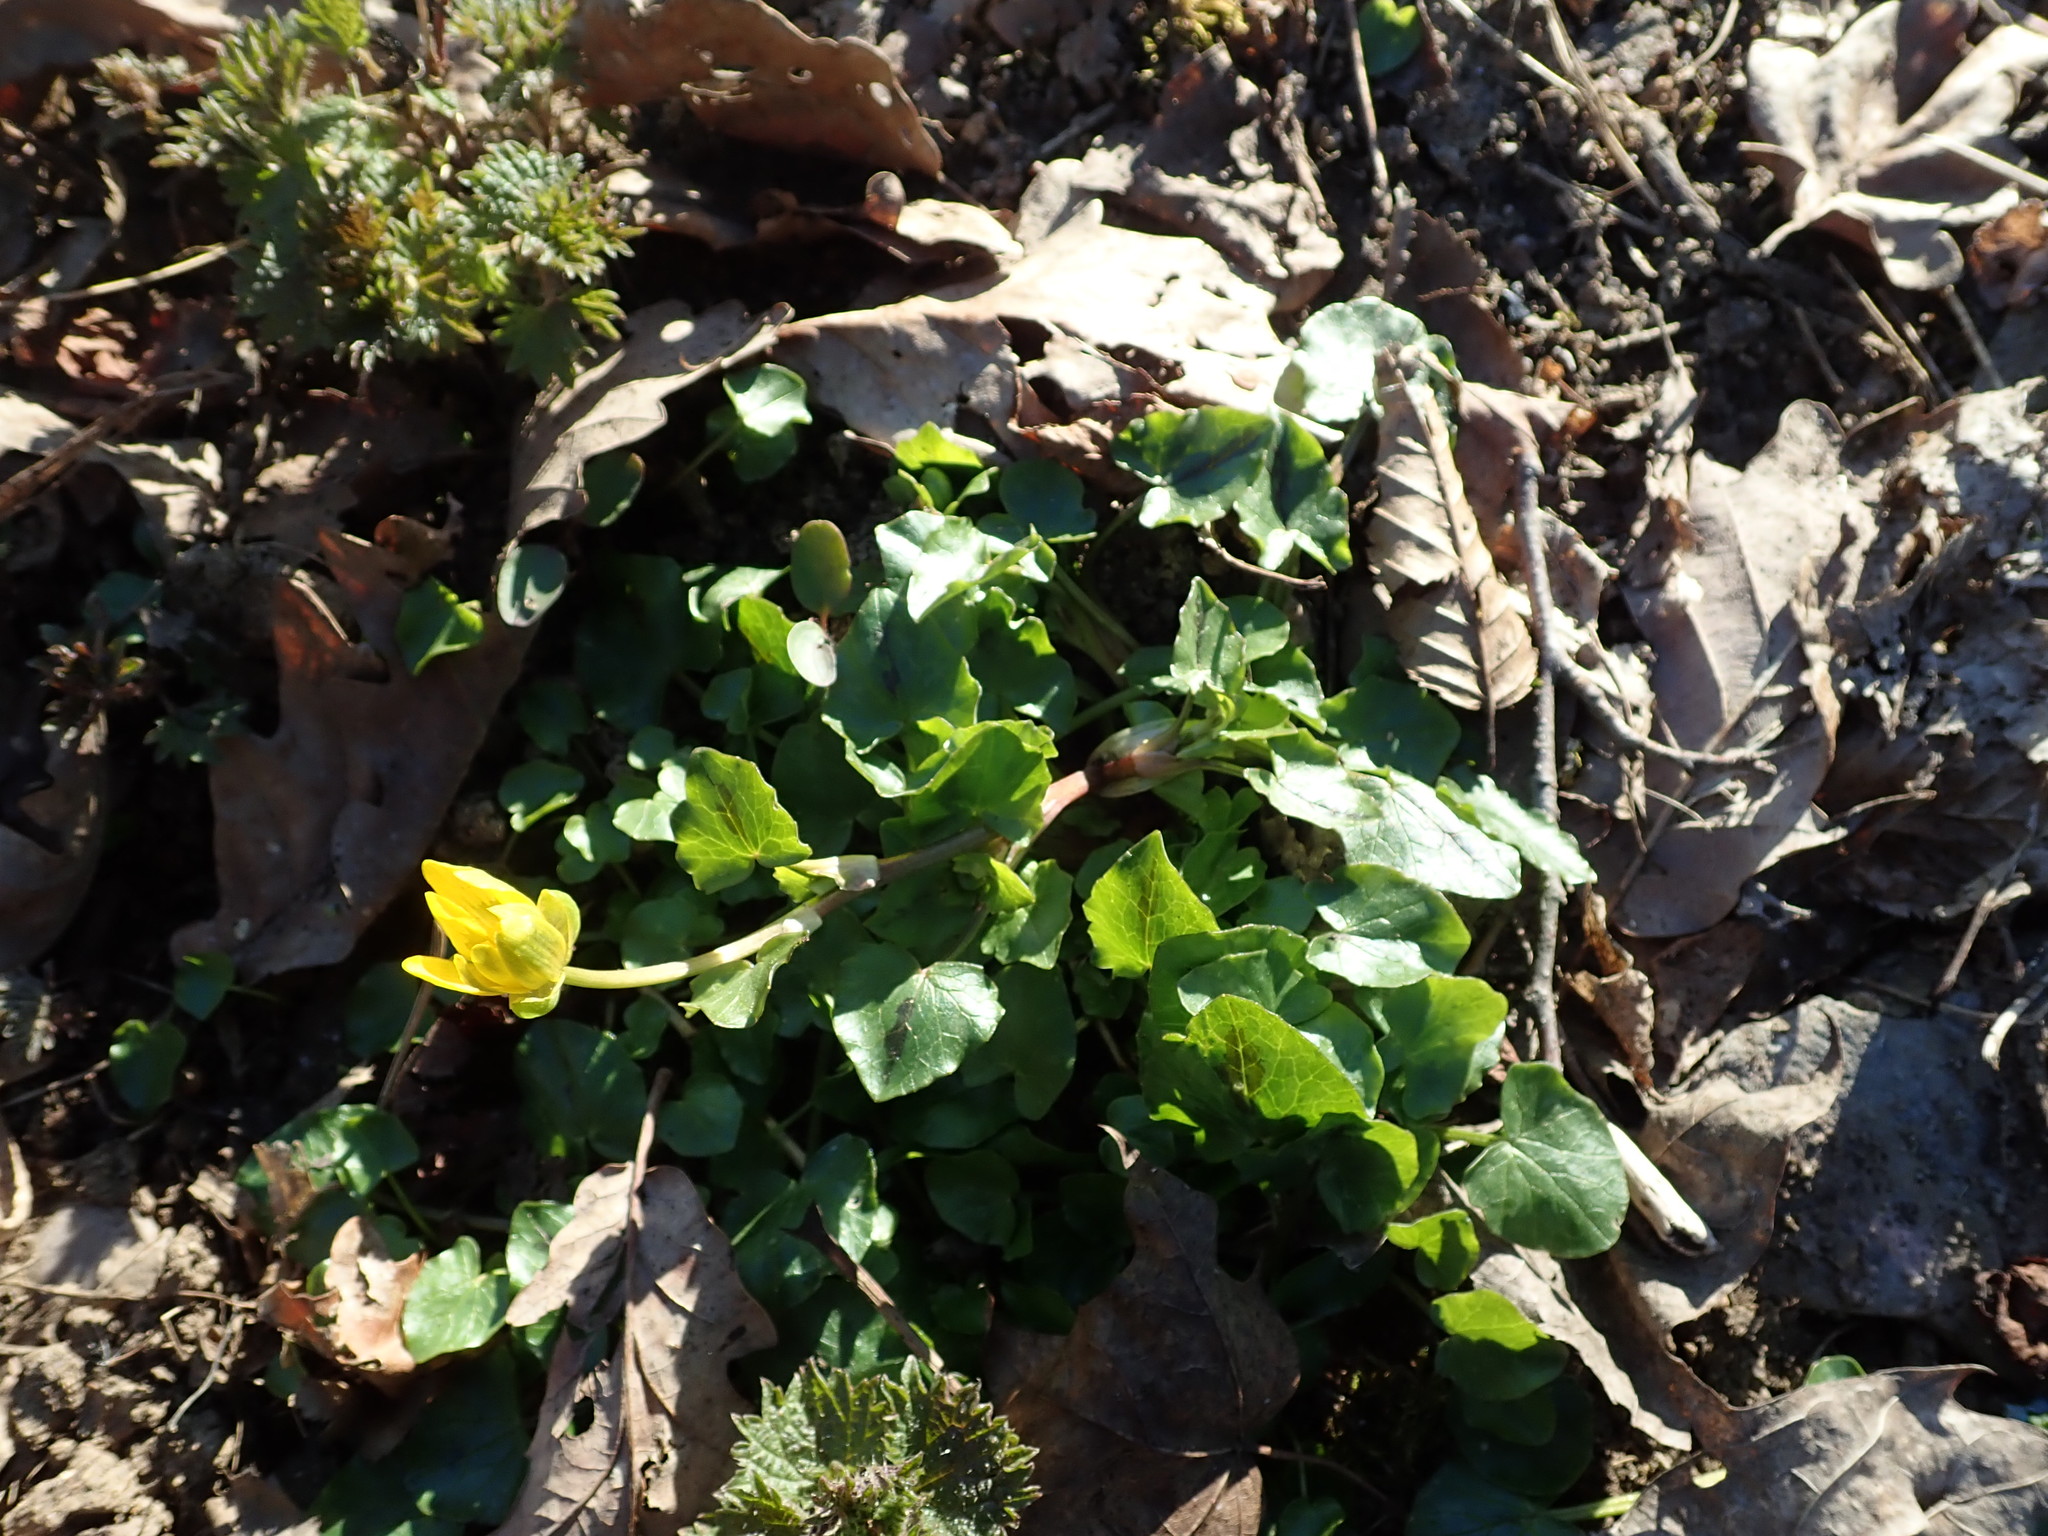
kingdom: Plantae
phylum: Tracheophyta
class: Magnoliopsida
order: Ranunculales
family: Ranunculaceae
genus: Ficaria
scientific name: Ficaria verna
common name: Lesser celandine
